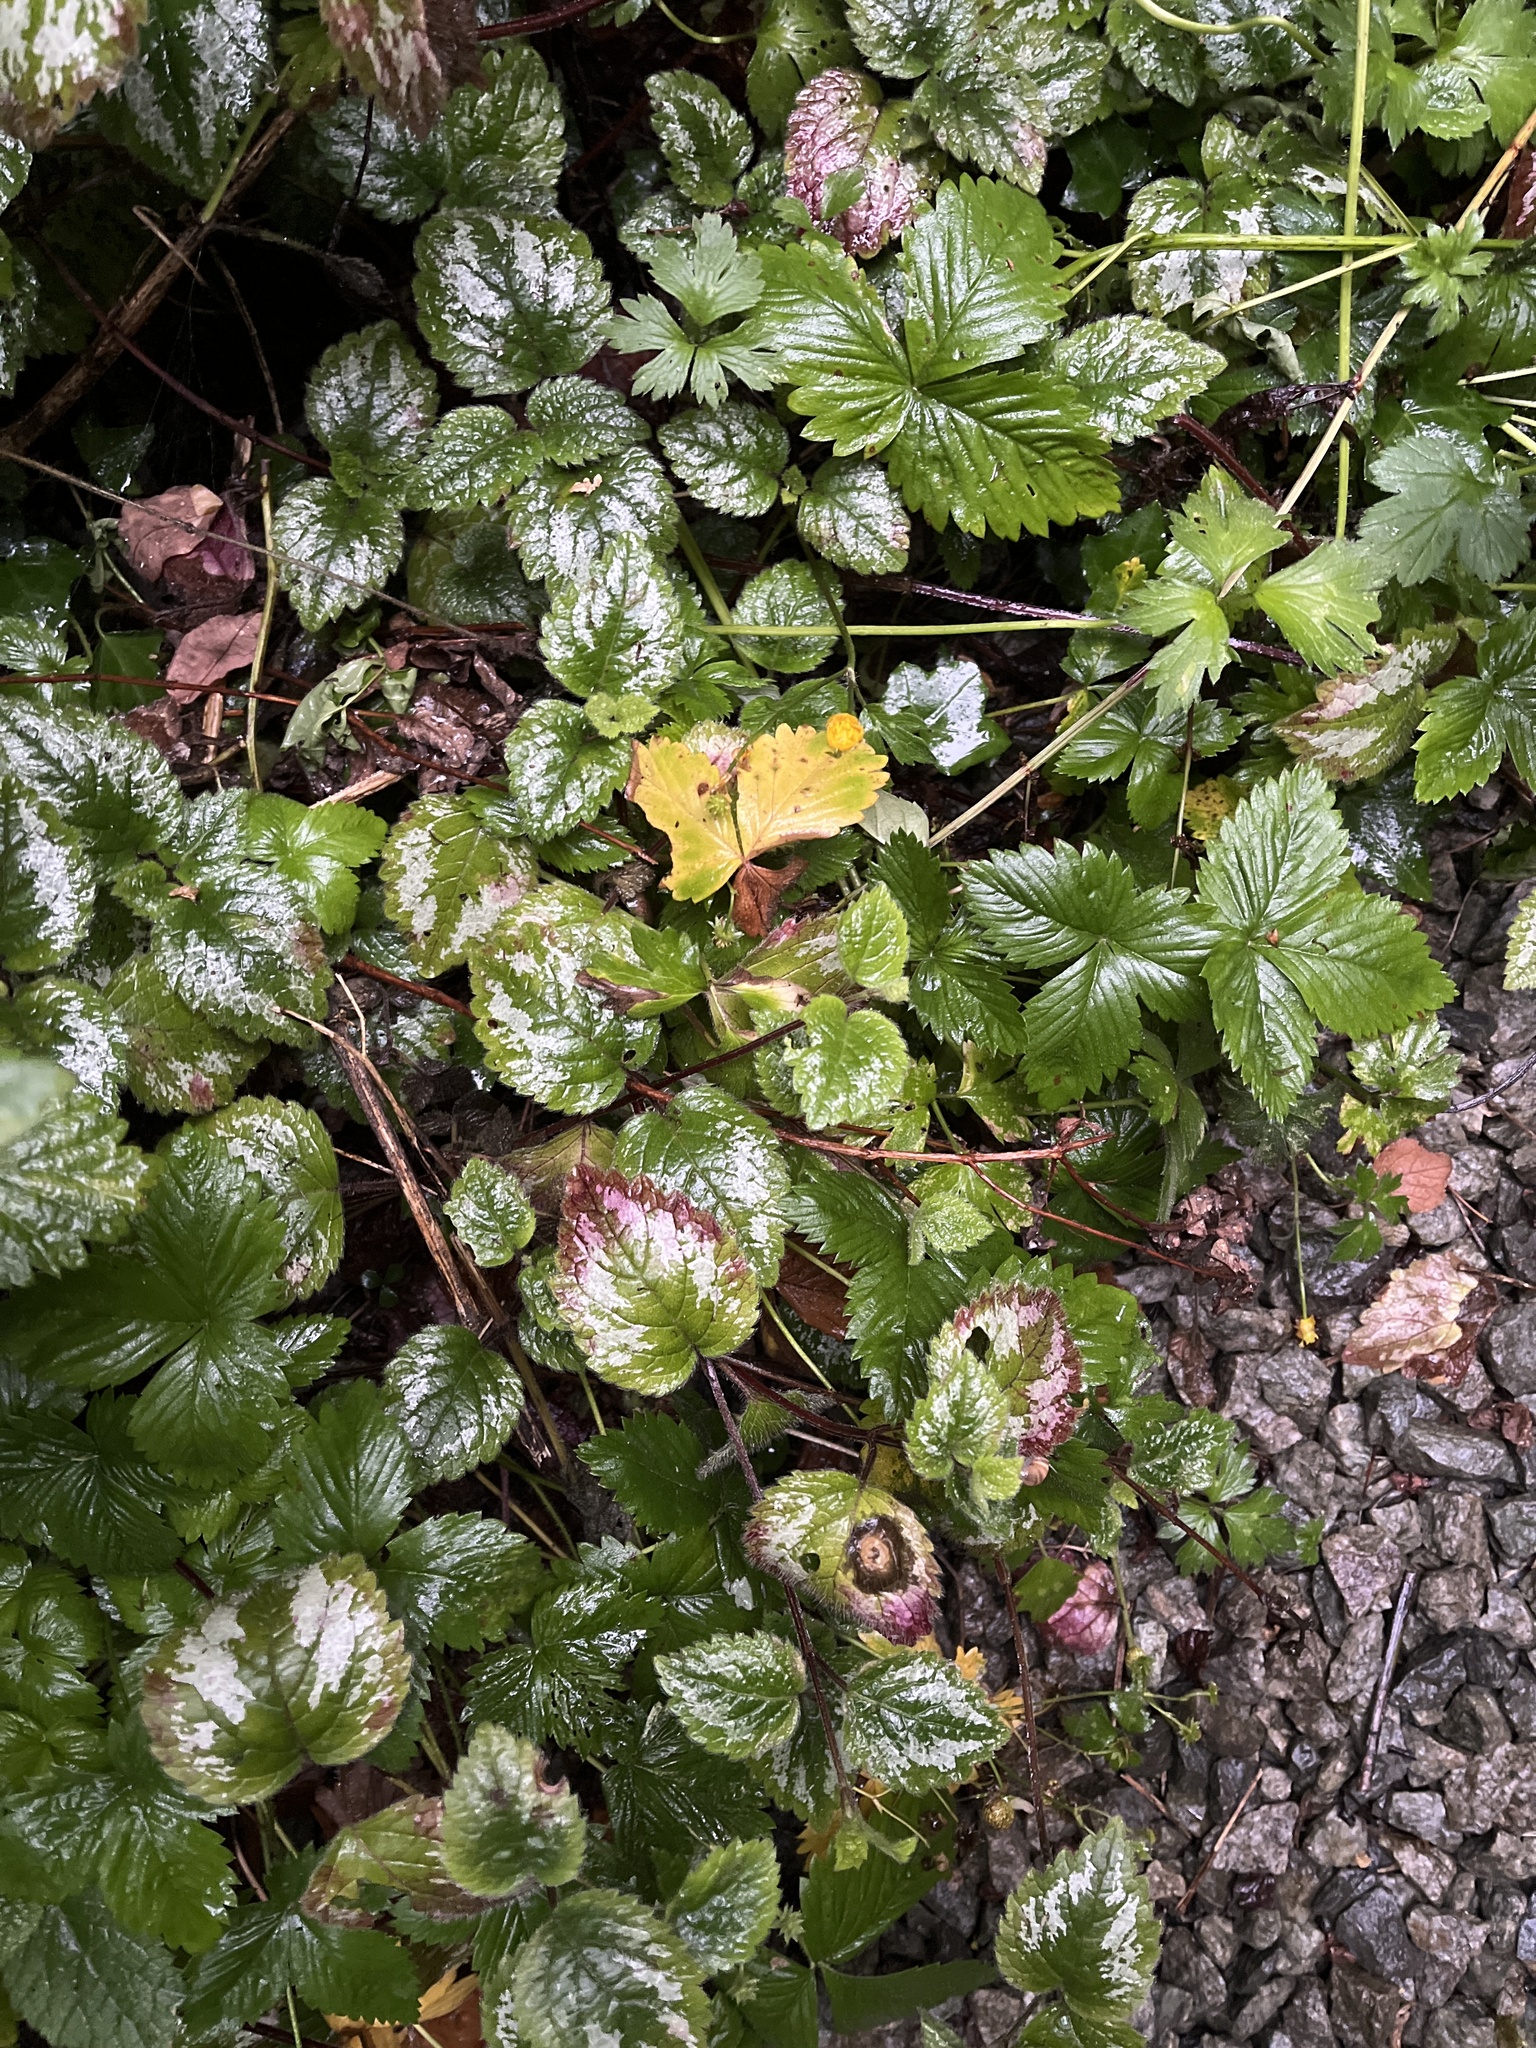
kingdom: Plantae
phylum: Tracheophyta
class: Magnoliopsida
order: Lamiales
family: Lamiaceae
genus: Lamium
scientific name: Lamium galeobdolon
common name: Yellow archangel
